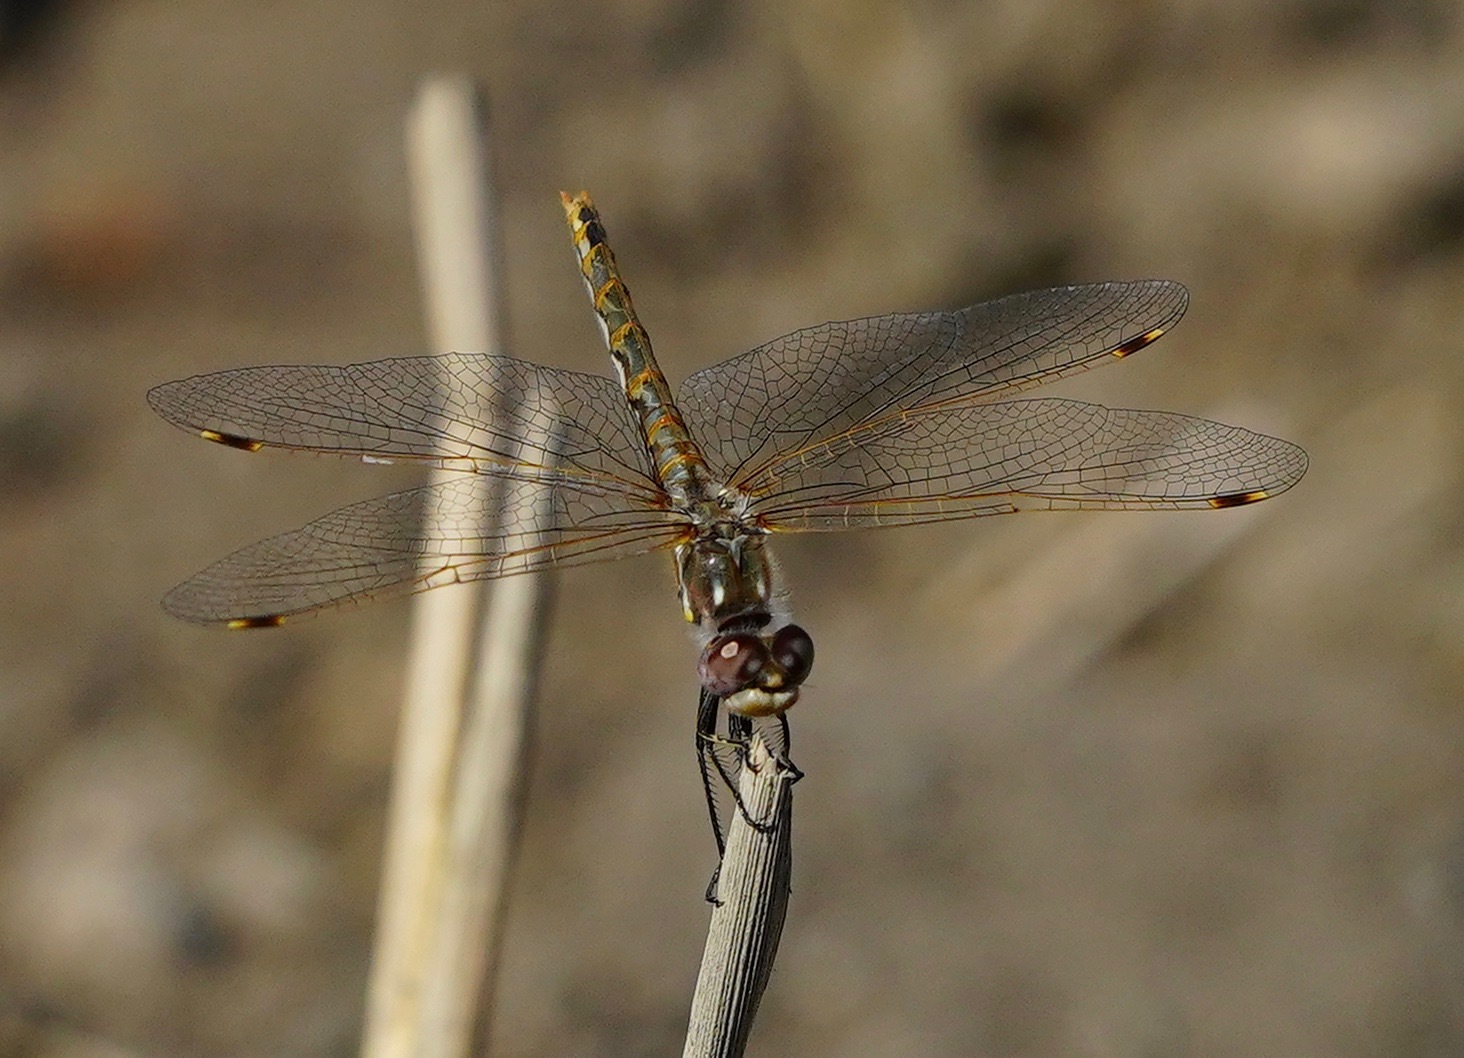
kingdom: Animalia
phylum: Arthropoda
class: Insecta
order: Odonata
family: Libellulidae
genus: Sympetrum
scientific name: Sympetrum corruptum
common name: Variegated meadowhawk
